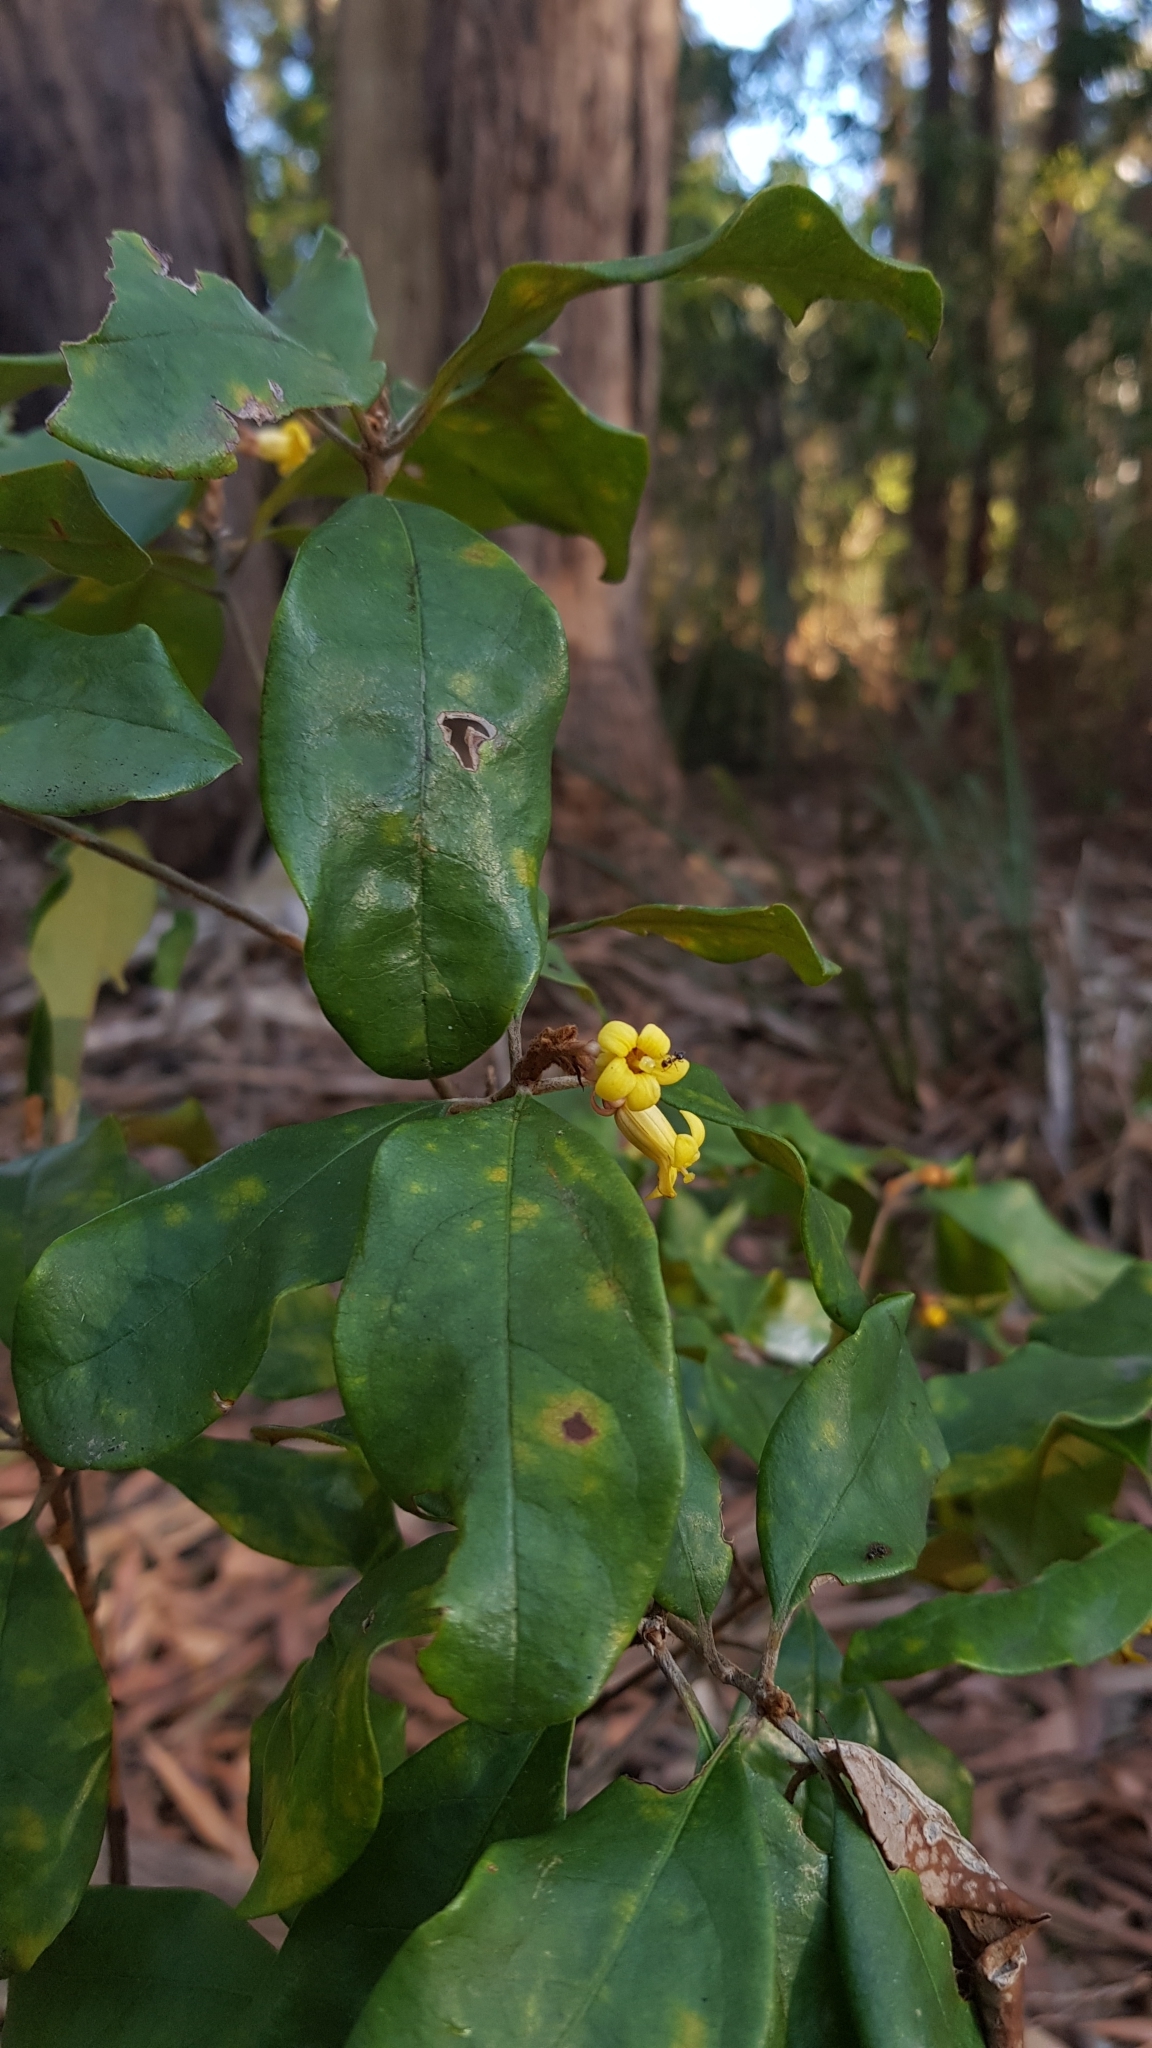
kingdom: Plantae
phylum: Tracheophyta
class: Magnoliopsida
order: Apiales
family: Pittosporaceae
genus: Pittosporum
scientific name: Pittosporum revolutum
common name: Brisbane-laurel
